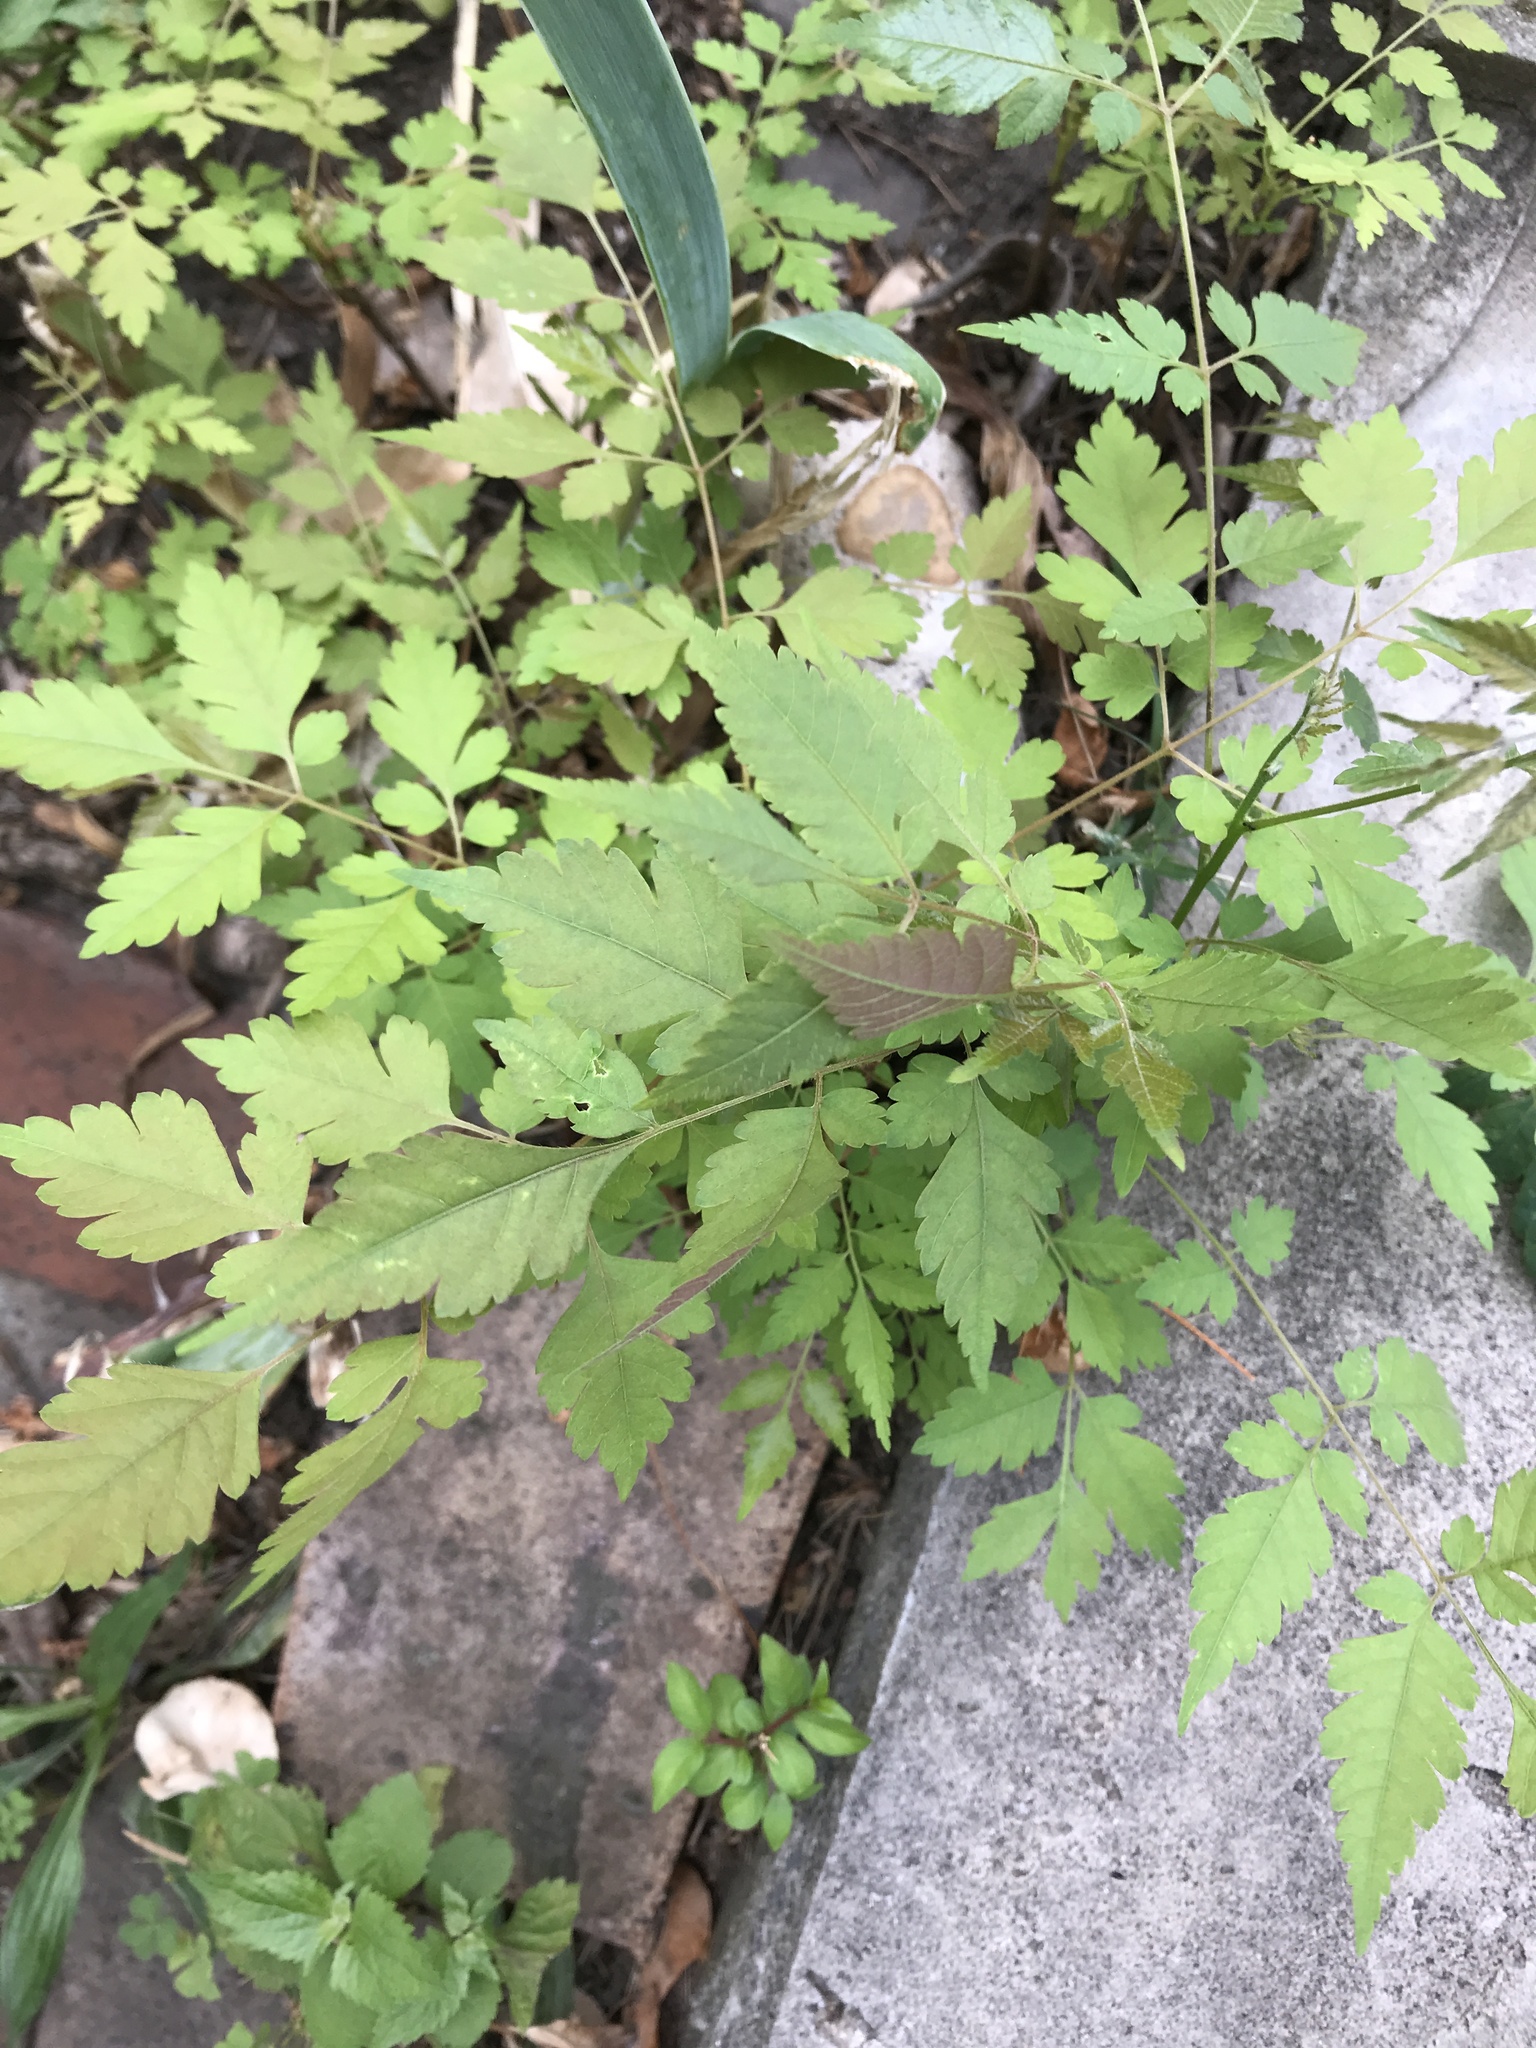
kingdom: Plantae
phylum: Tracheophyta
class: Magnoliopsida
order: Sapindales
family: Sapindaceae
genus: Koelreuteria
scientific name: Koelreuteria paniculata
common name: Pride-of-india
